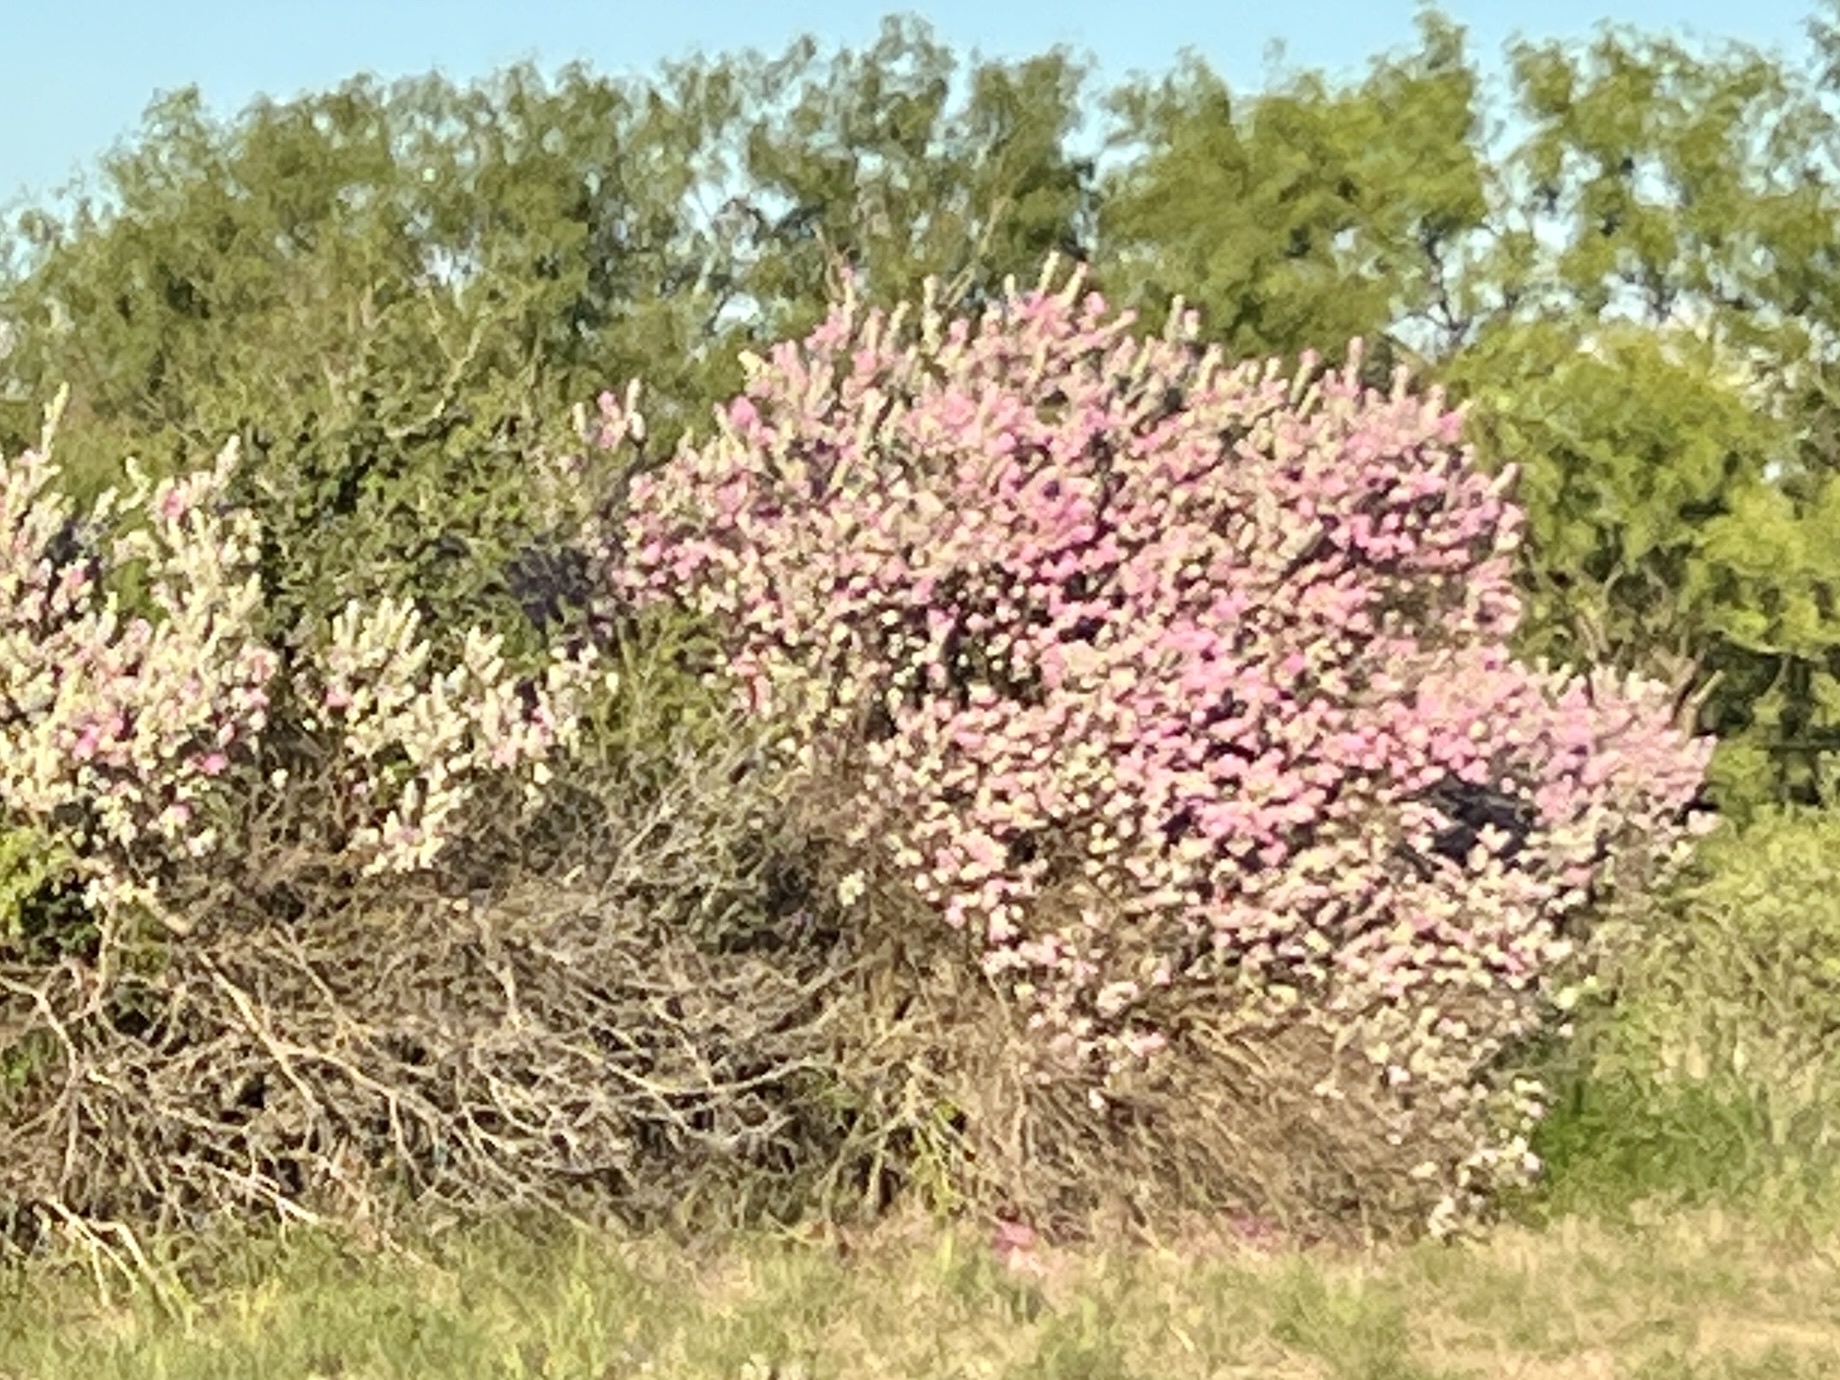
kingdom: Plantae
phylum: Tracheophyta
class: Magnoliopsida
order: Lamiales
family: Scrophulariaceae
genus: Leucophyllum
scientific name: Leucophyllum frutescens
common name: Texas silverleaf
